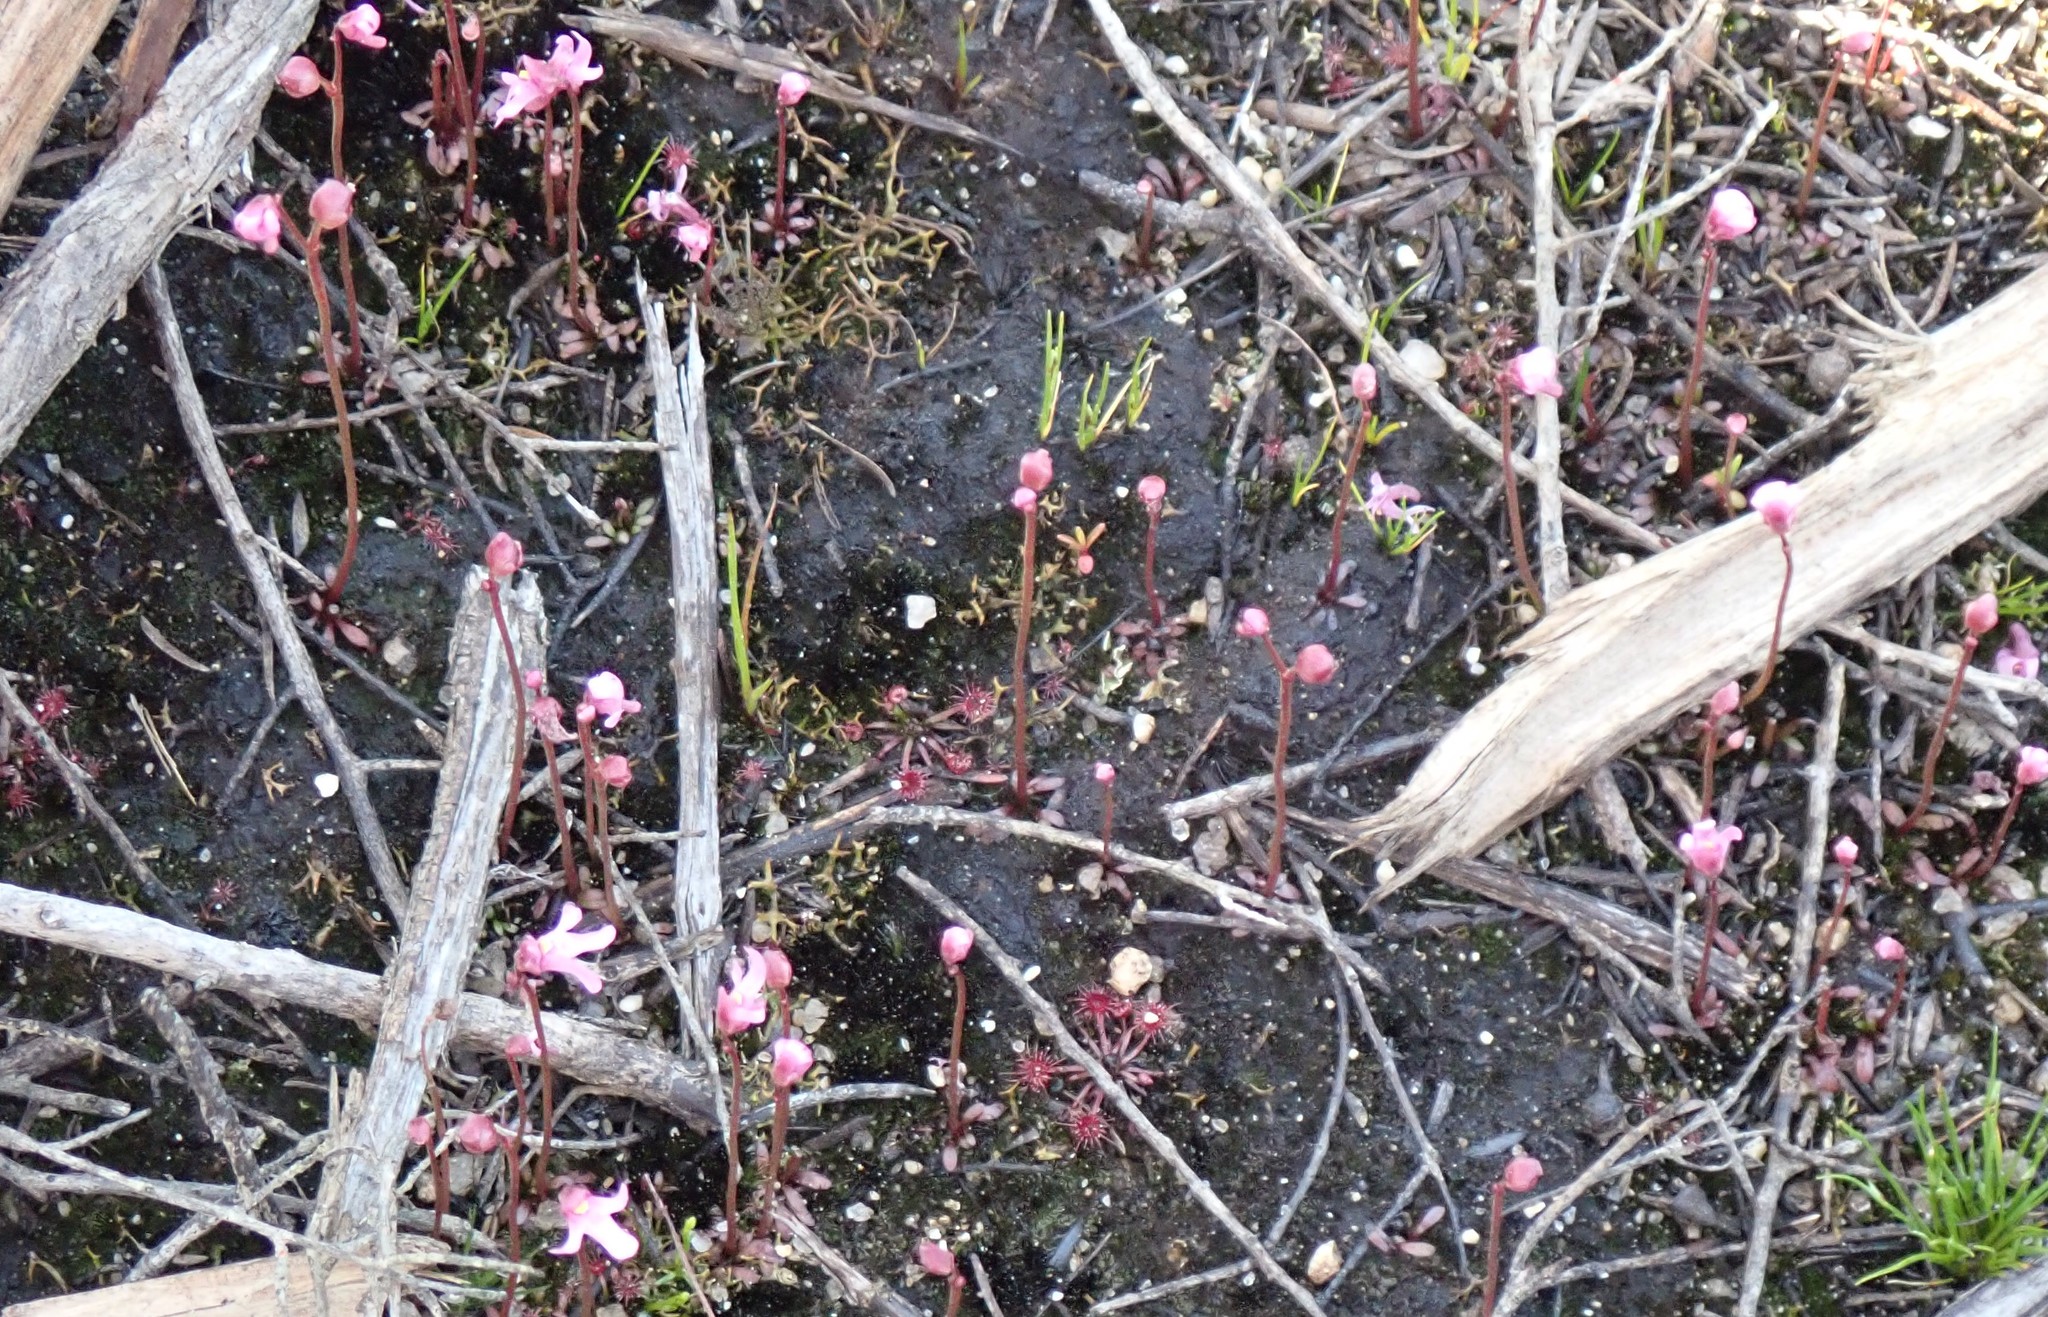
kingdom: Plantae
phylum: Tracheophyta
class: Magnoliopsida
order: Lamiales
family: Lentibulariaceae
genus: Utricularia
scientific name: Utricularia tenella
